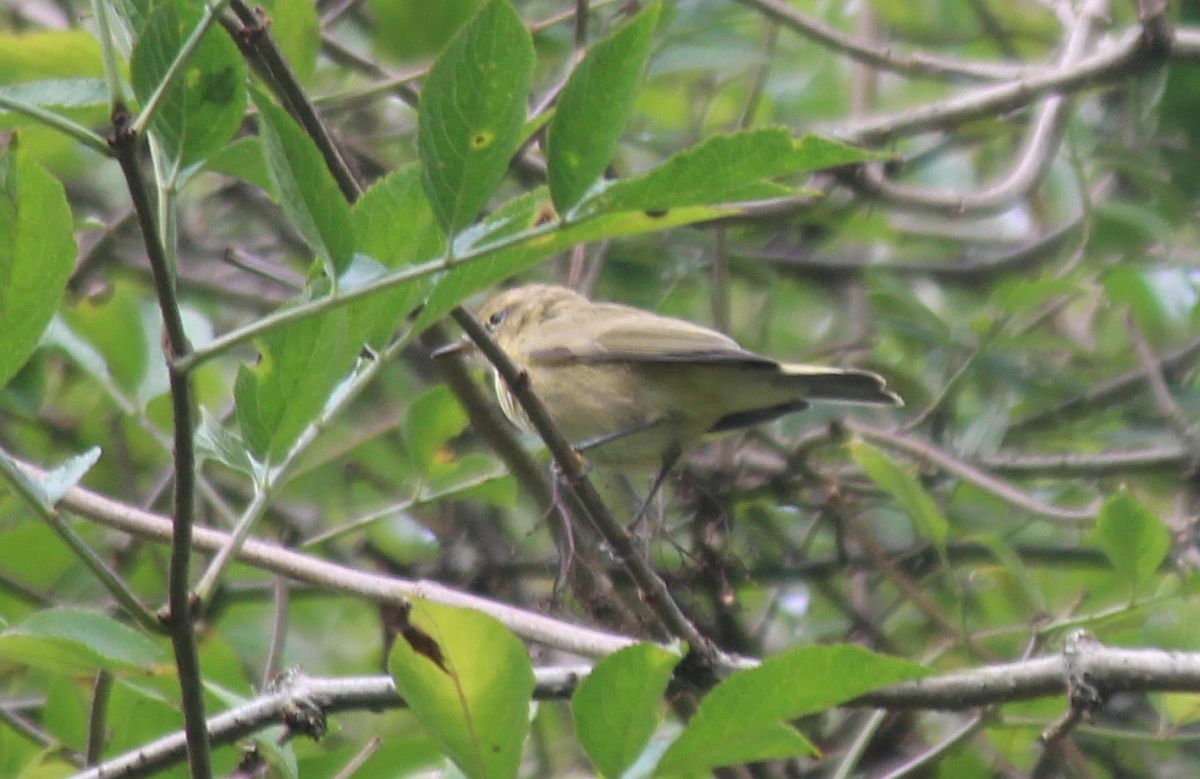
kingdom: Animalia
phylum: Chordata
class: Aves
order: Passeriformes
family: Phylloscopidae
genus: Phylloscopus
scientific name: Phylloscopus collybita
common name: Common chiffchaff
